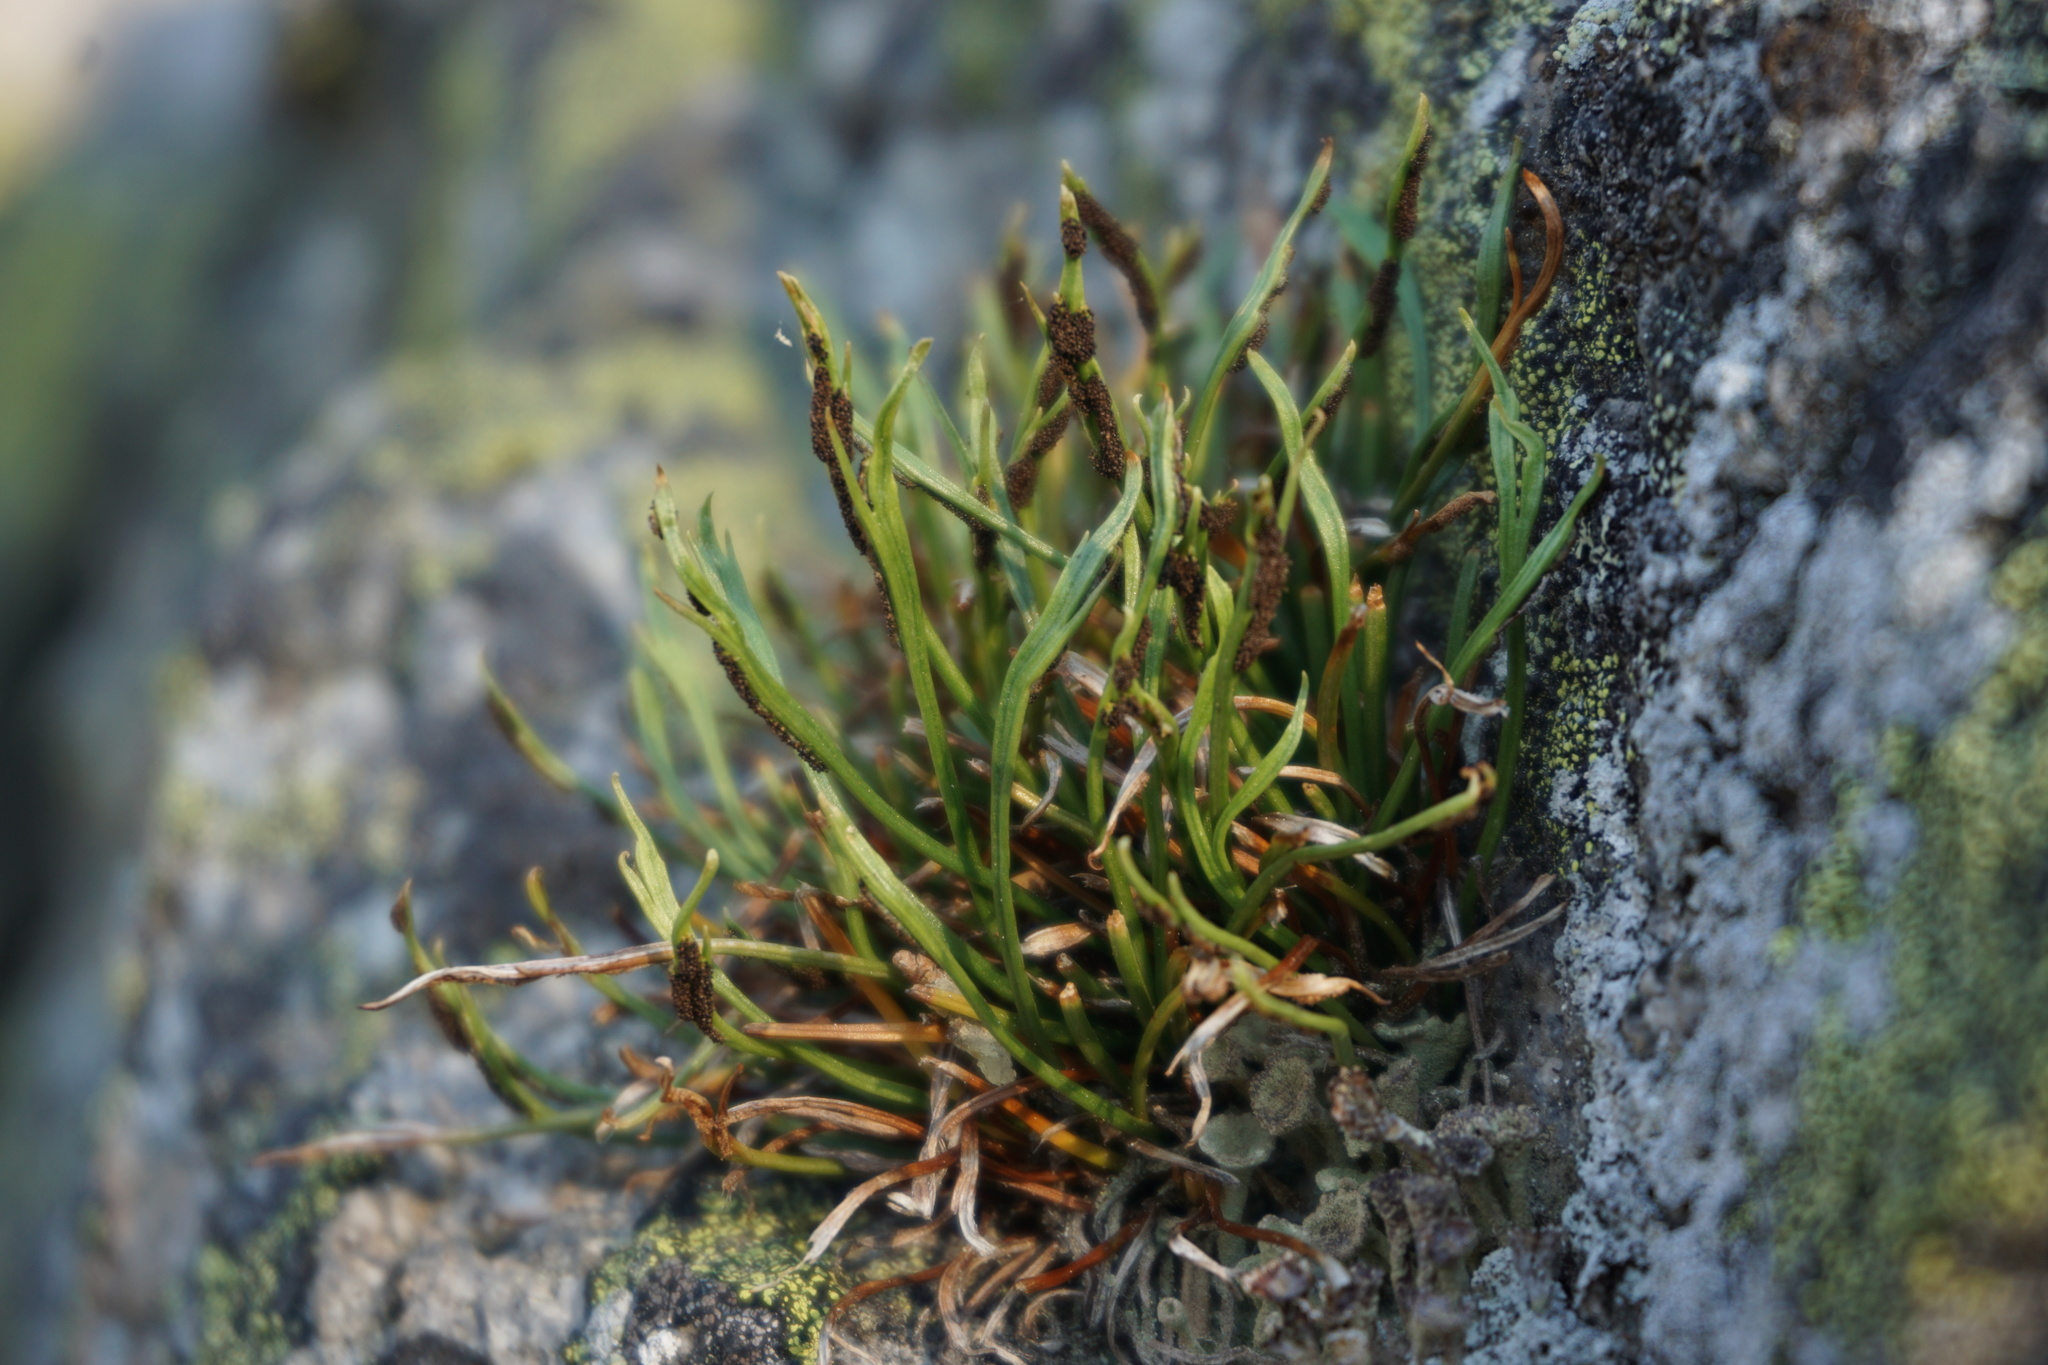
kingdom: Plantae
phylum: Tracheophyta
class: Polypodiopsida
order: Polypodiales
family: Aspleniaceae
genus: Asplenium
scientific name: Asplenium septentrionale
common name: Forked spleenwort
